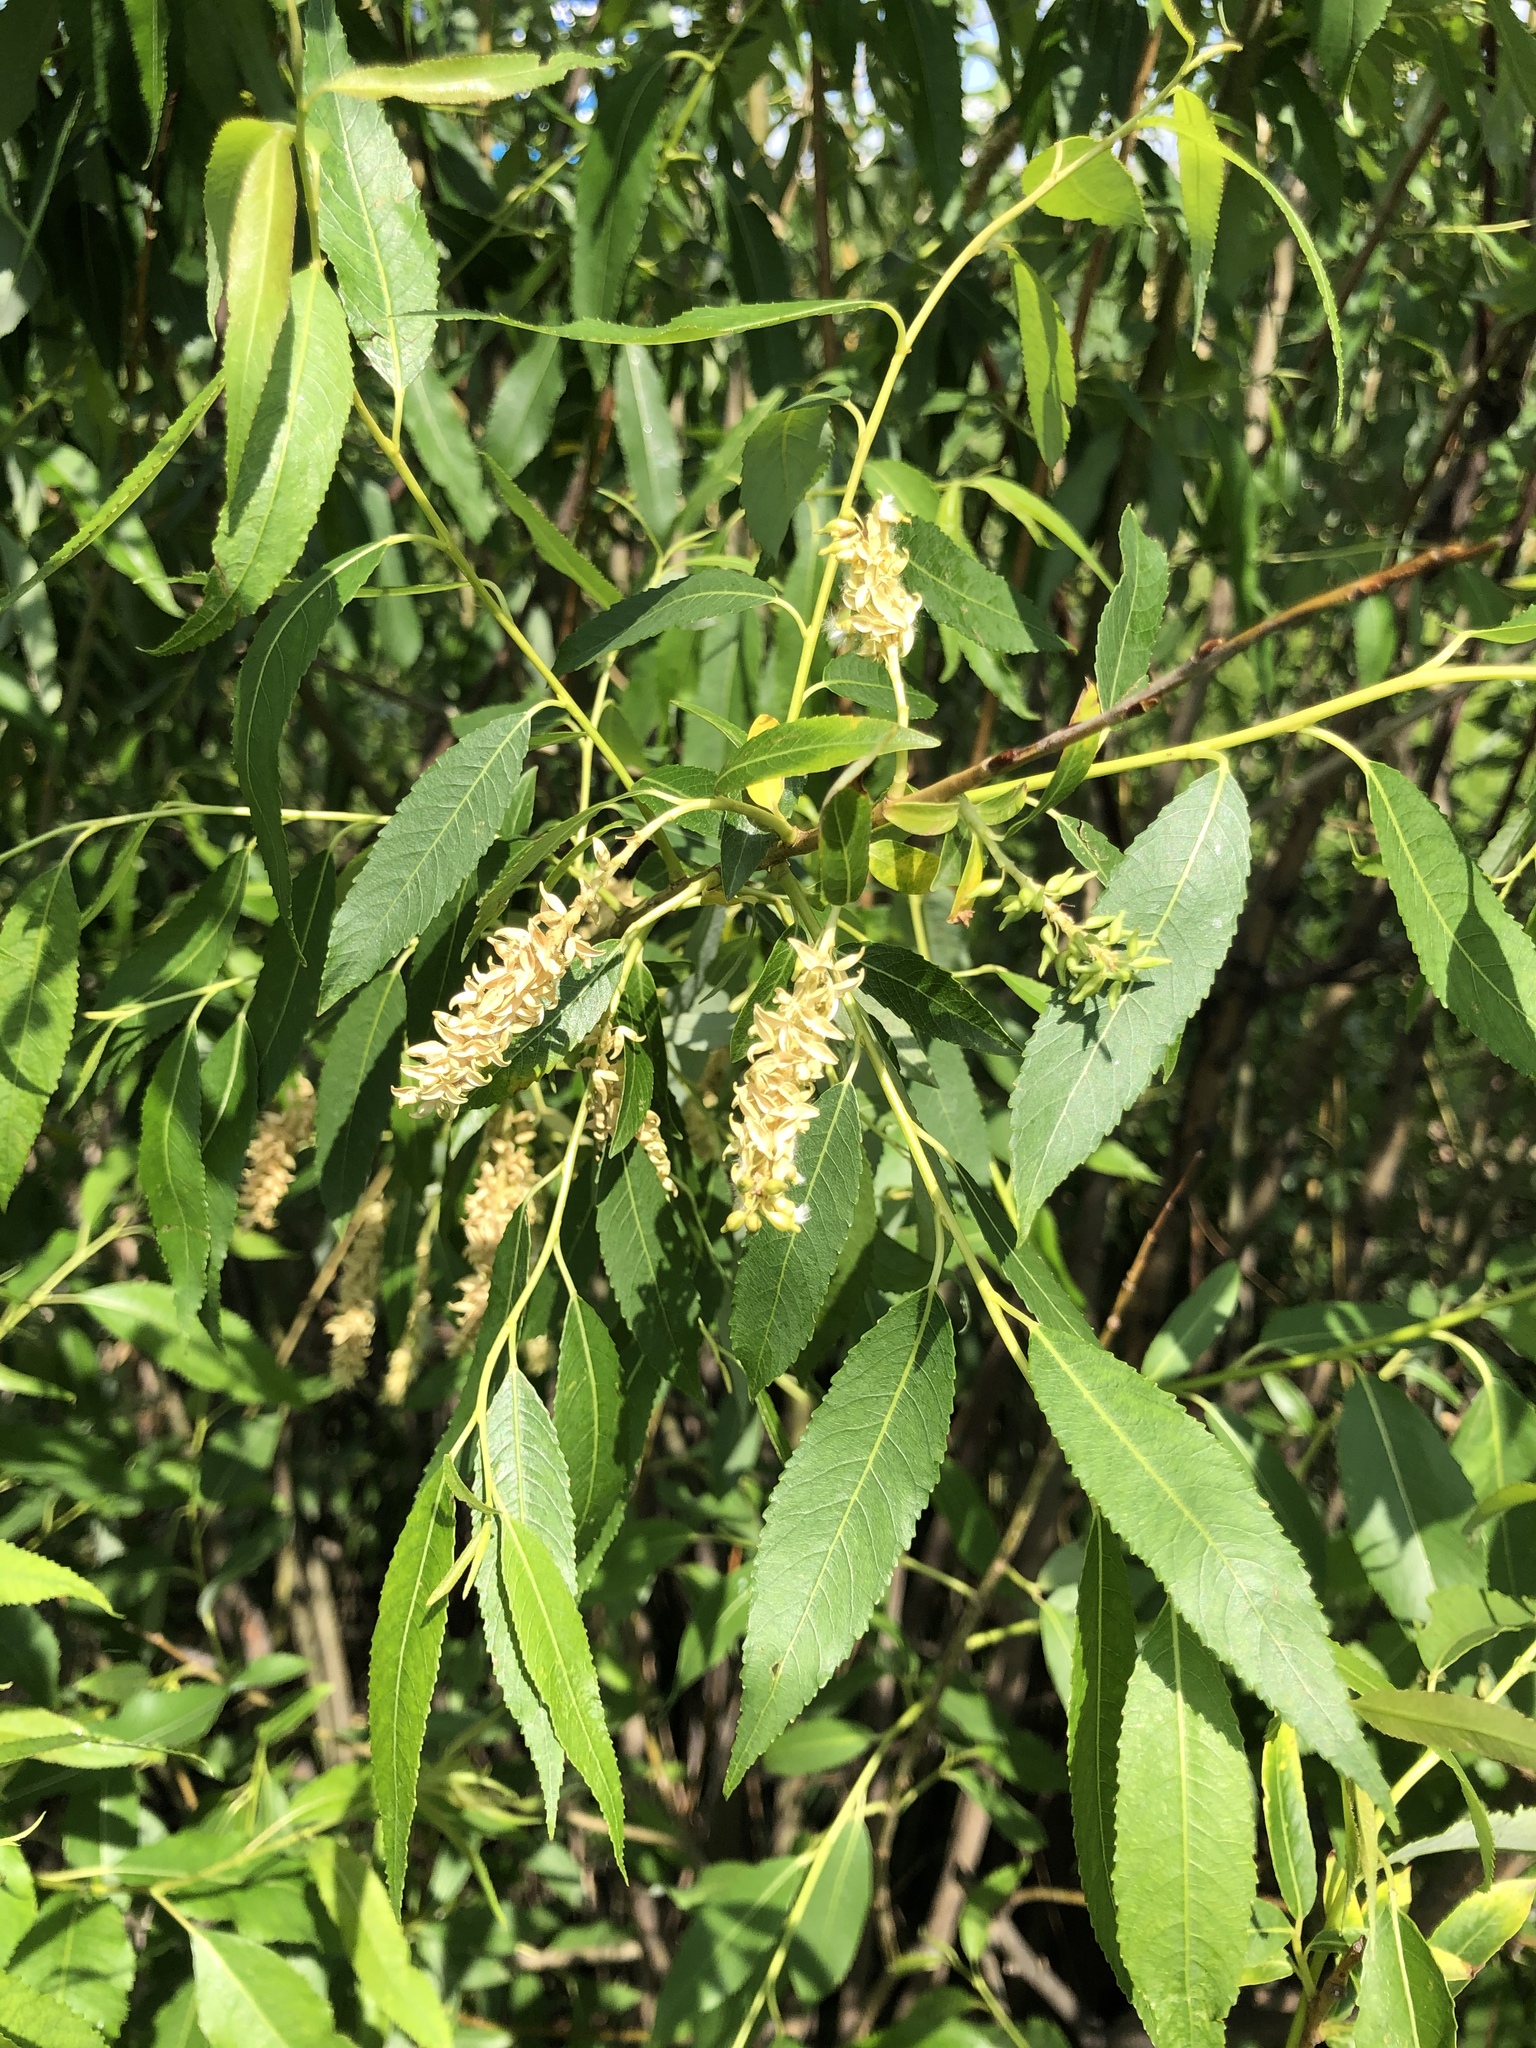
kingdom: Plantae
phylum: Tracheophyta
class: Magnoliopsida
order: Malpighiales
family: Salicaceae
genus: Salix
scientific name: Salix triandra
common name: Almond willow
